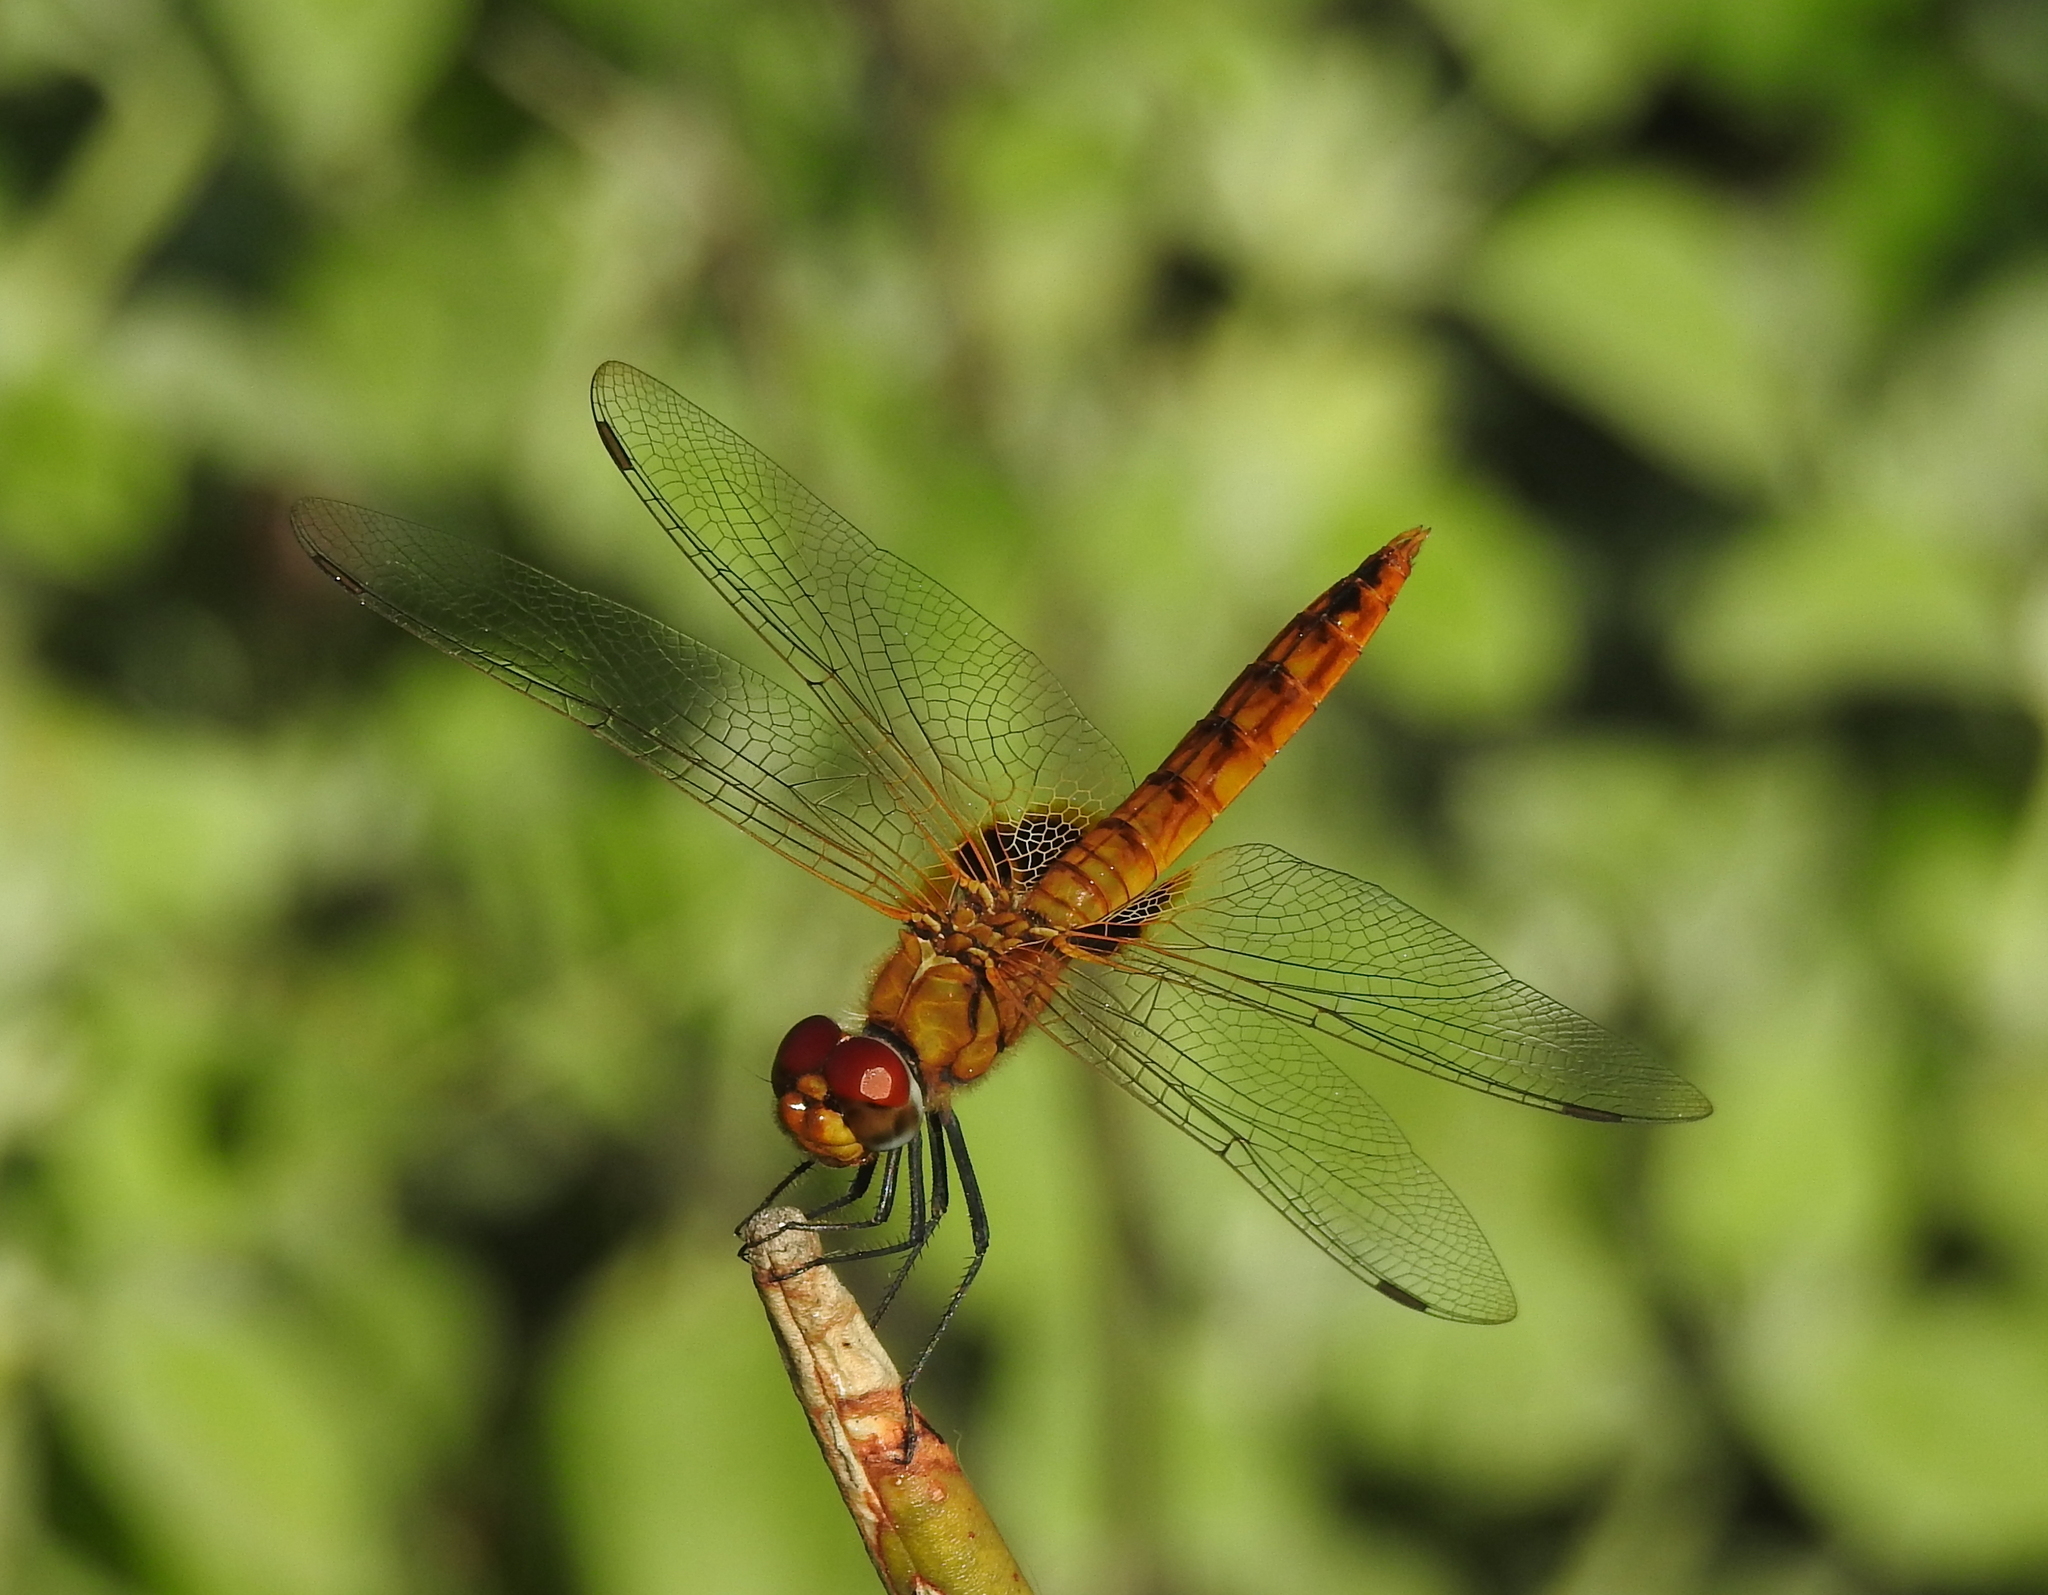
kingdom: Animalia
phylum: Arthropoda
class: Insecta
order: Odonata
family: Libellulidae
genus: Urothemis
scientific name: Urothemis signata
